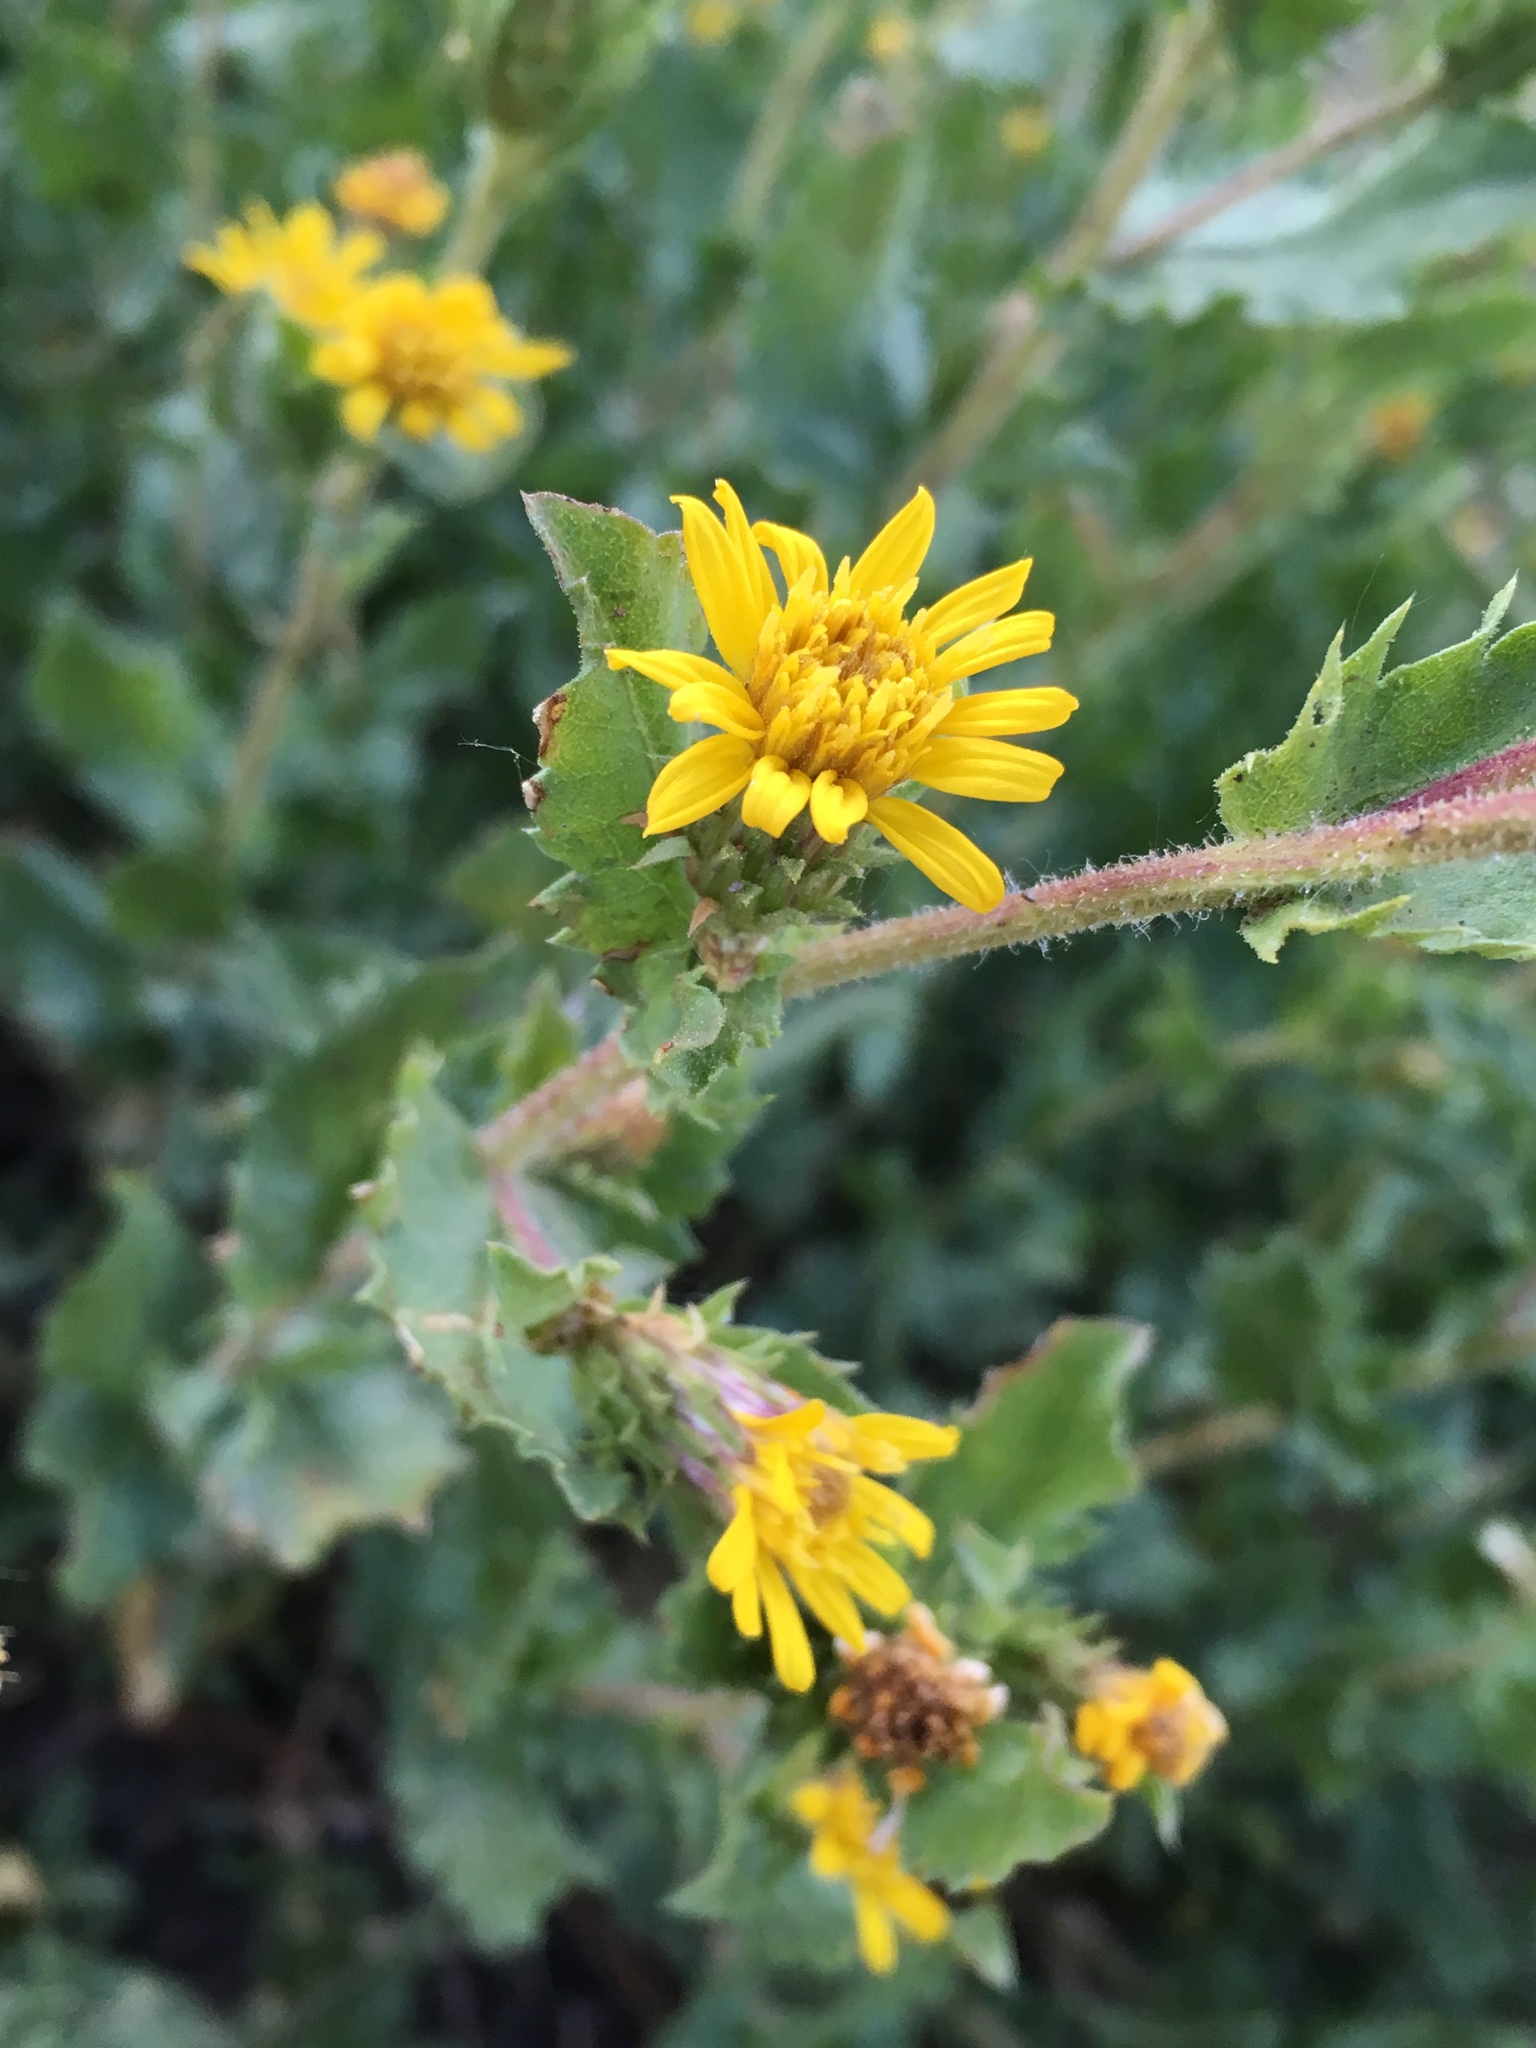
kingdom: Plantae
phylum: Tracheophyta
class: Magnoliopsida
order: Asterales
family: Asteraceae
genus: Adeia
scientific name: Adeia whitneyi
